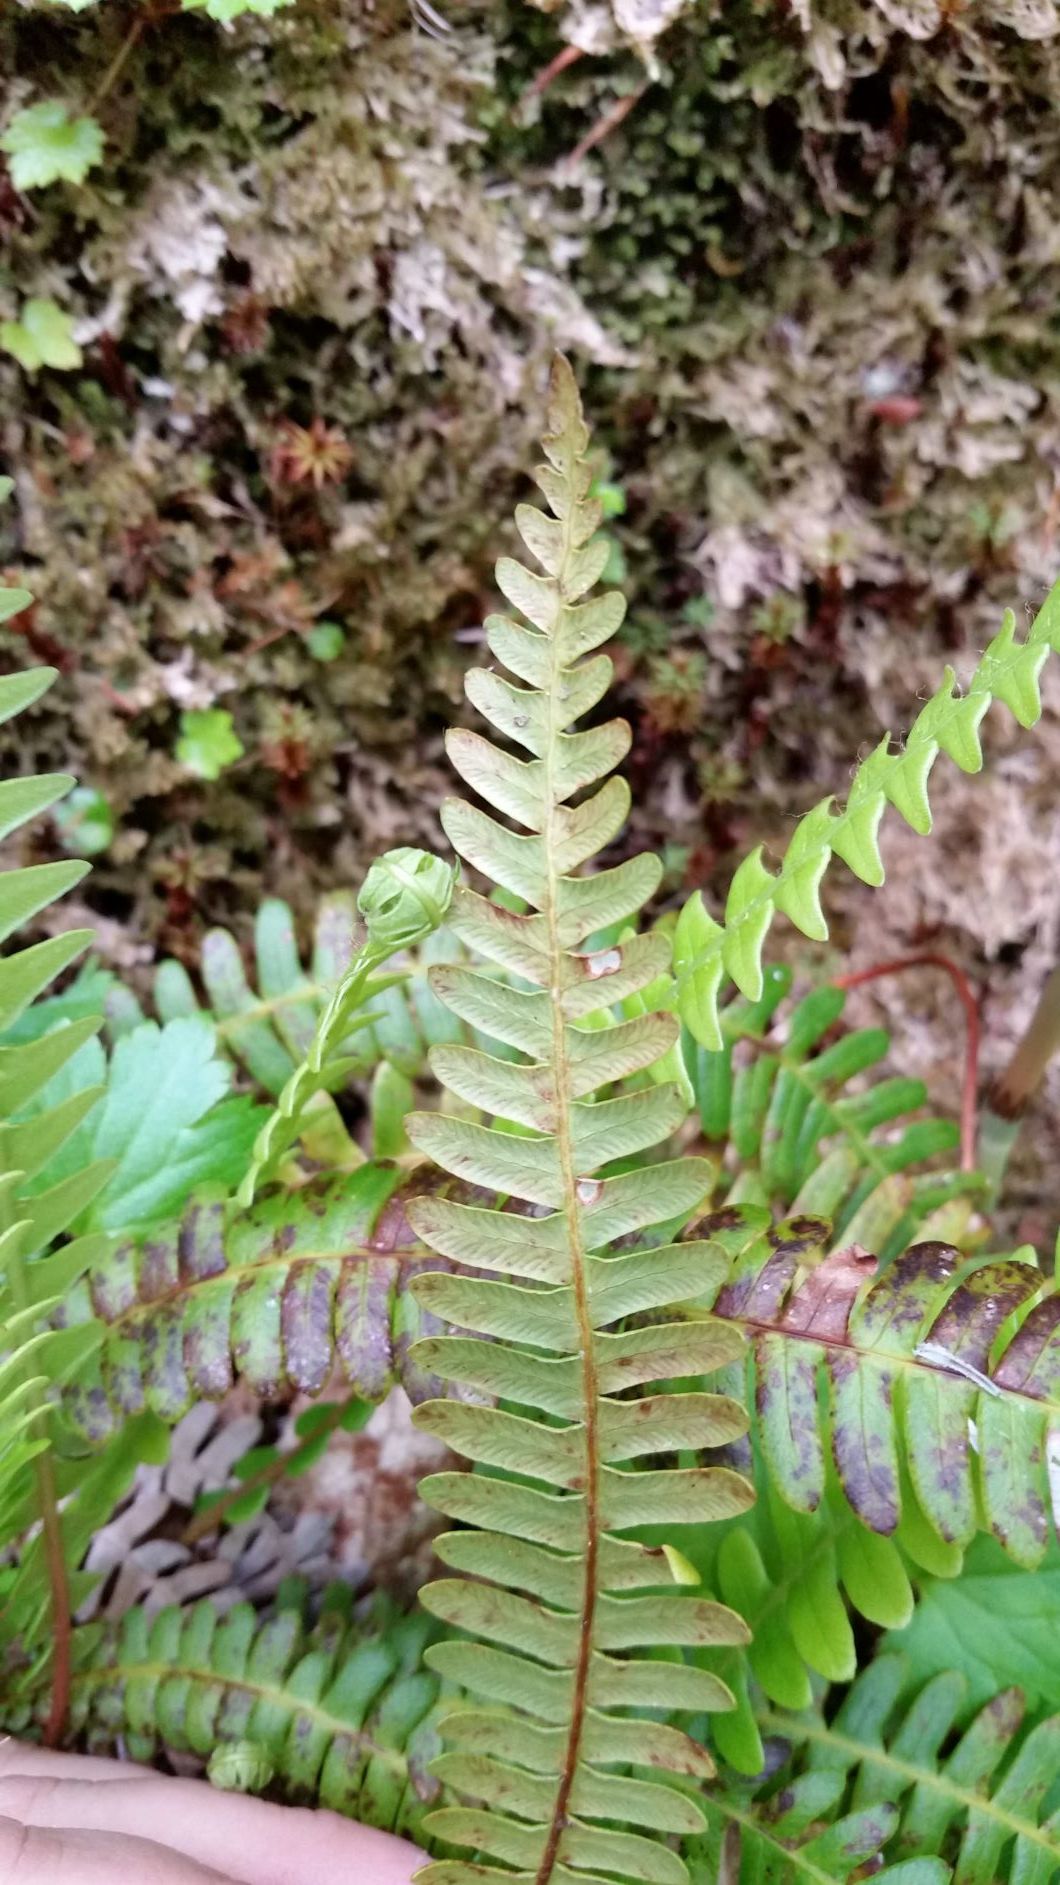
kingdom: Plantae
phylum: Tracheophyta
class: Polypodiopsida
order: Polypodiales
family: Blechnaceae
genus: Struthiopteris
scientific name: Struthiopteris spicant
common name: Deer fern
